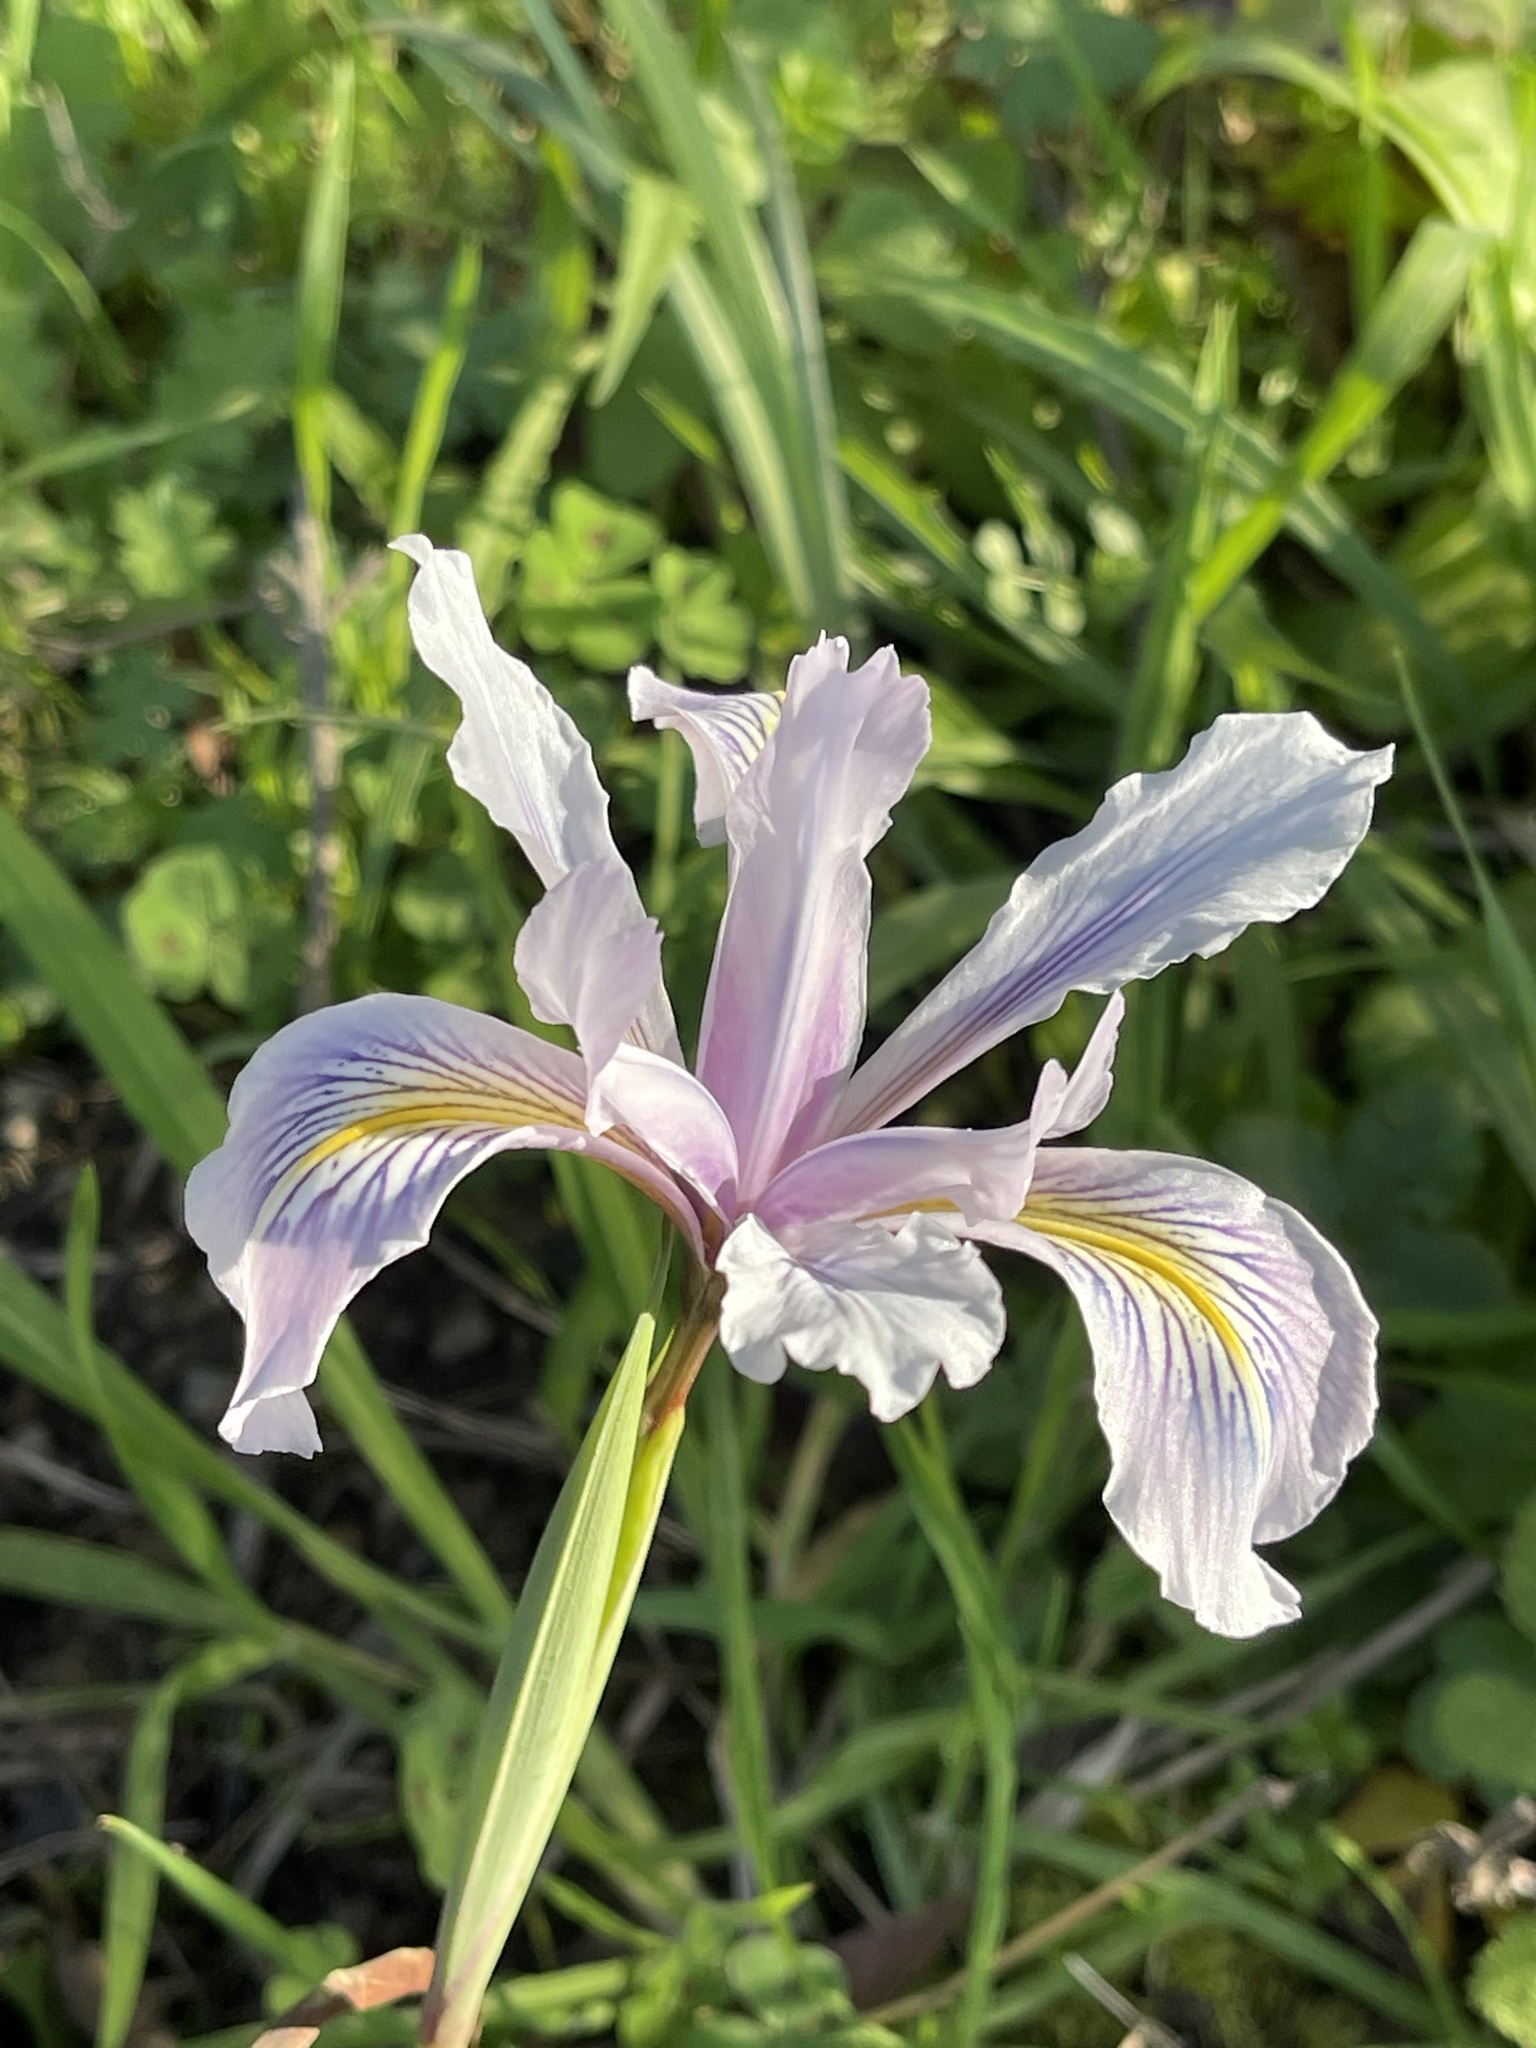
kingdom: Plantae
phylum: Tracheophyta
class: Liliopsida
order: Asparagales
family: Iridaceae
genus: Iris
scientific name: Iris douglasiana
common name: Marin iris
